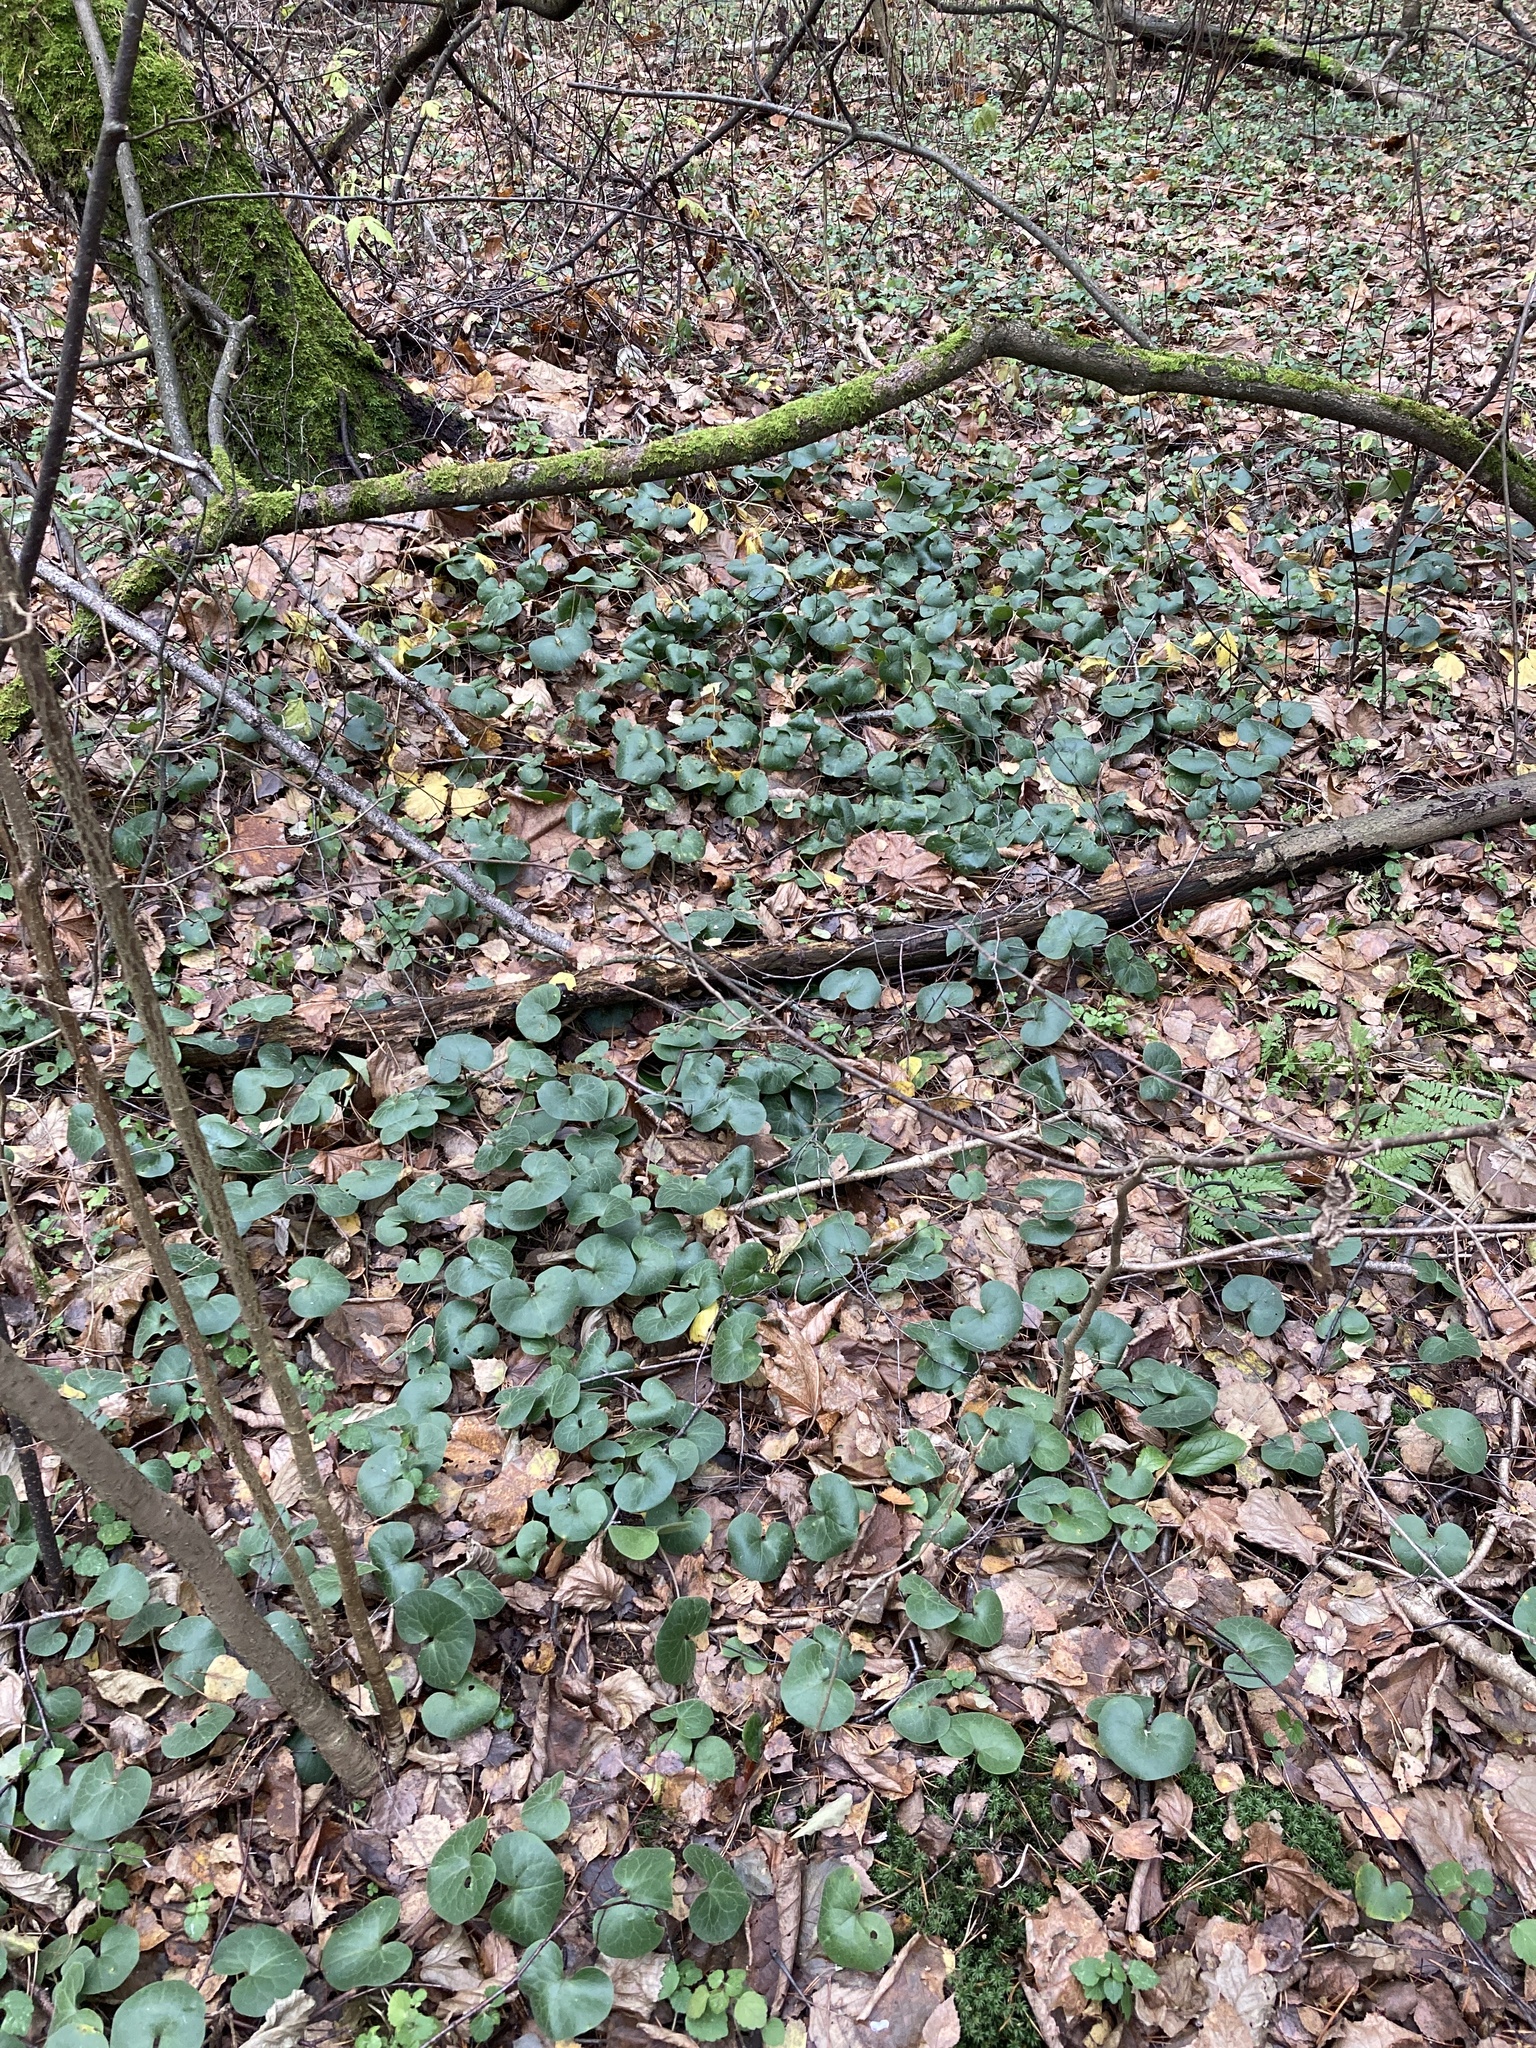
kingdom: Plantae
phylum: Tracheophyta
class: Magnoliopsida
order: Piperales
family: Aristolochiaceae
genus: Asarum
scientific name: Asarum europaeum
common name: Asarabacca
